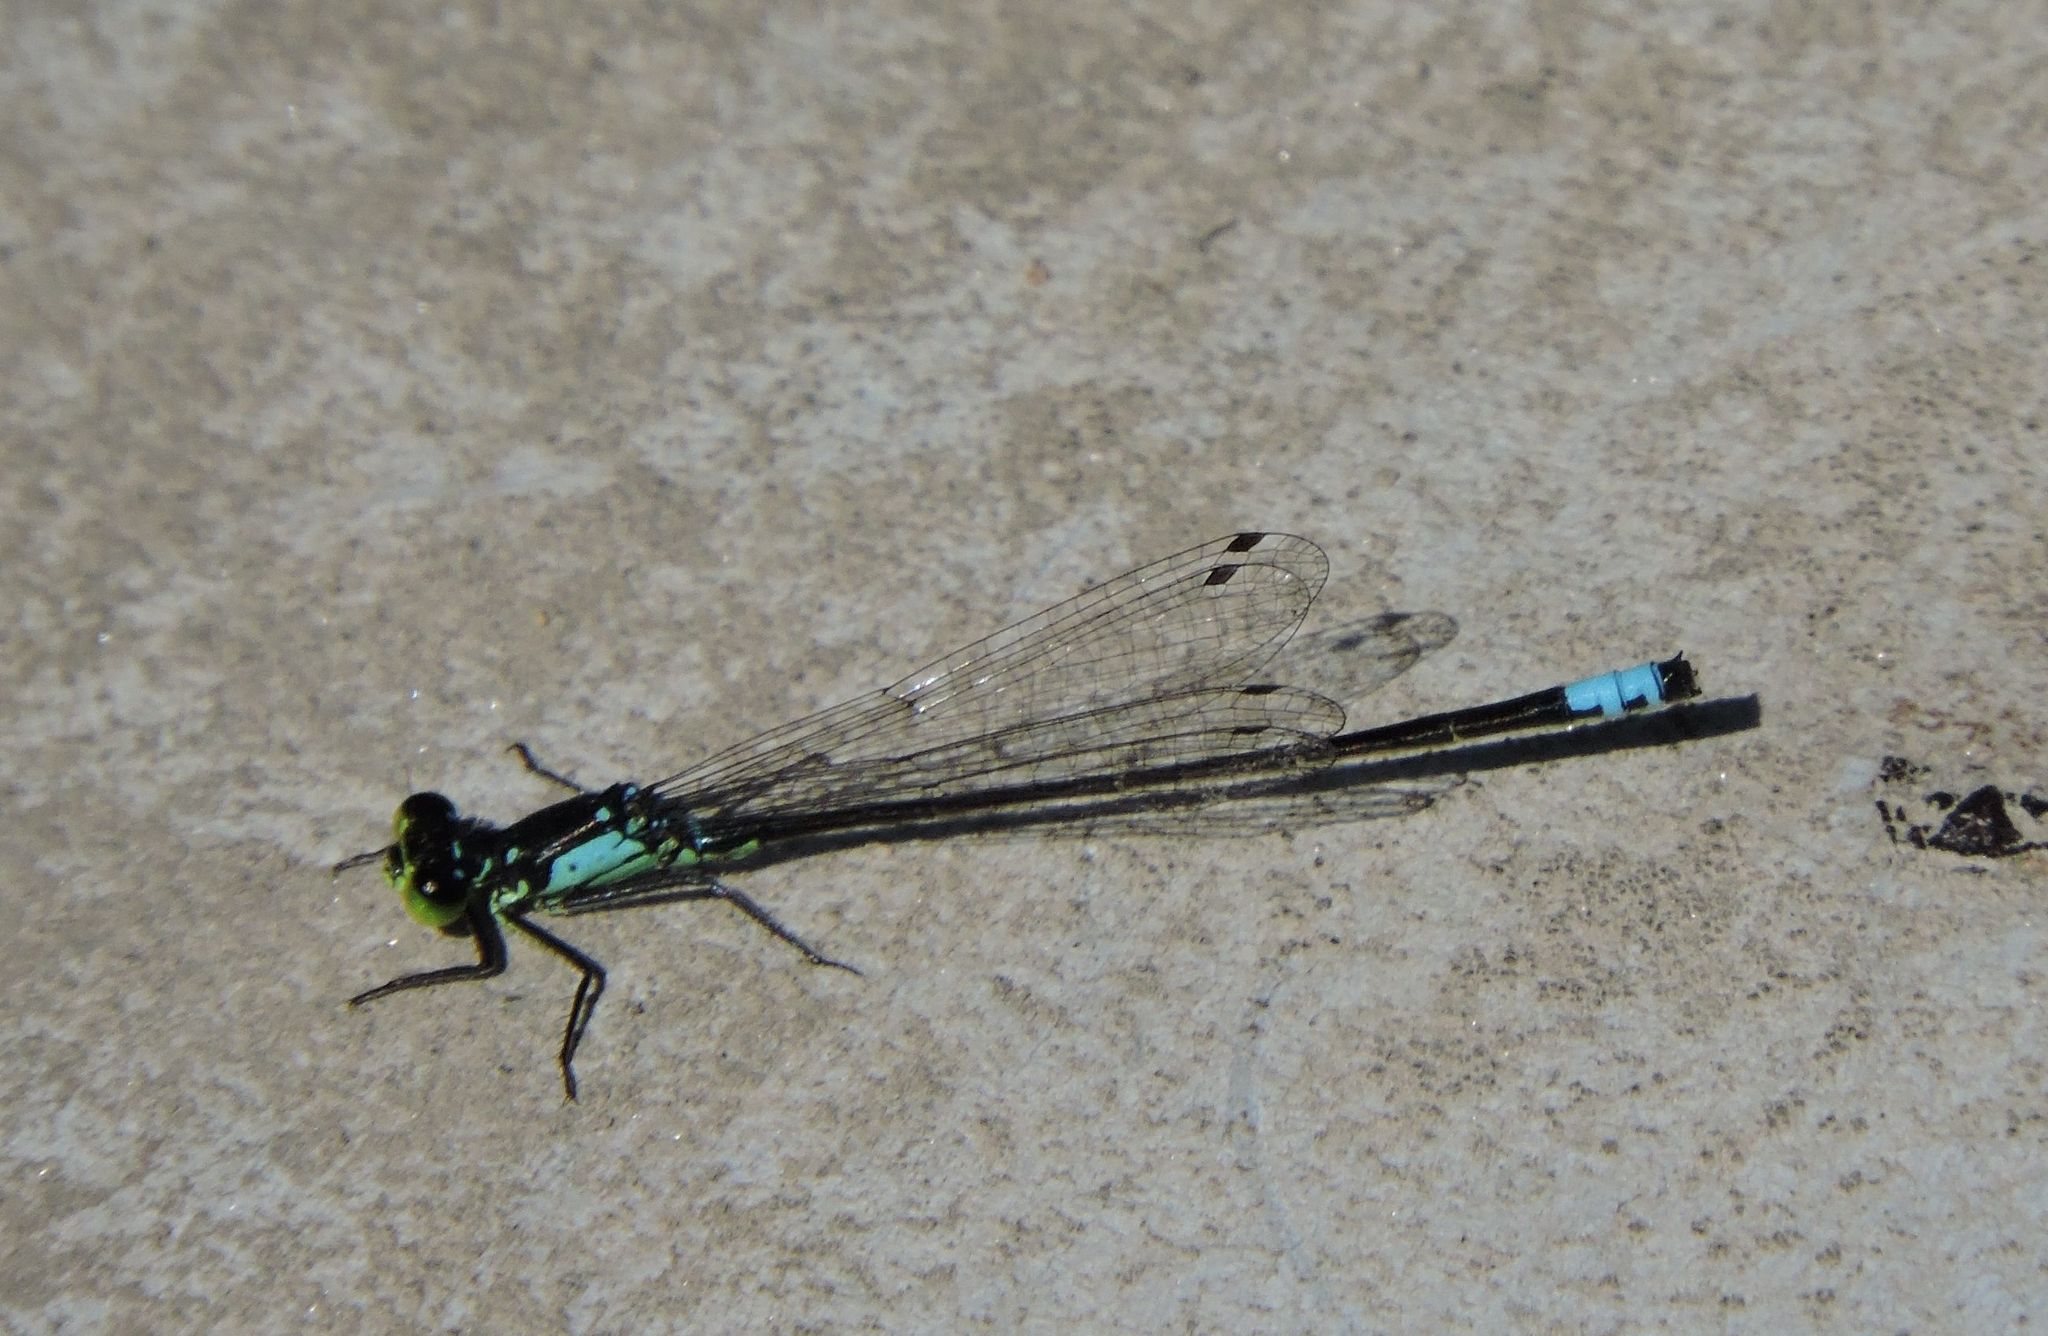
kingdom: Animalia
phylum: Arthropoda
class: Insecta
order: Odonata
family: Coenagrionidae
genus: Ischnura
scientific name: Ischnura cervula
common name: Pacific forktail
